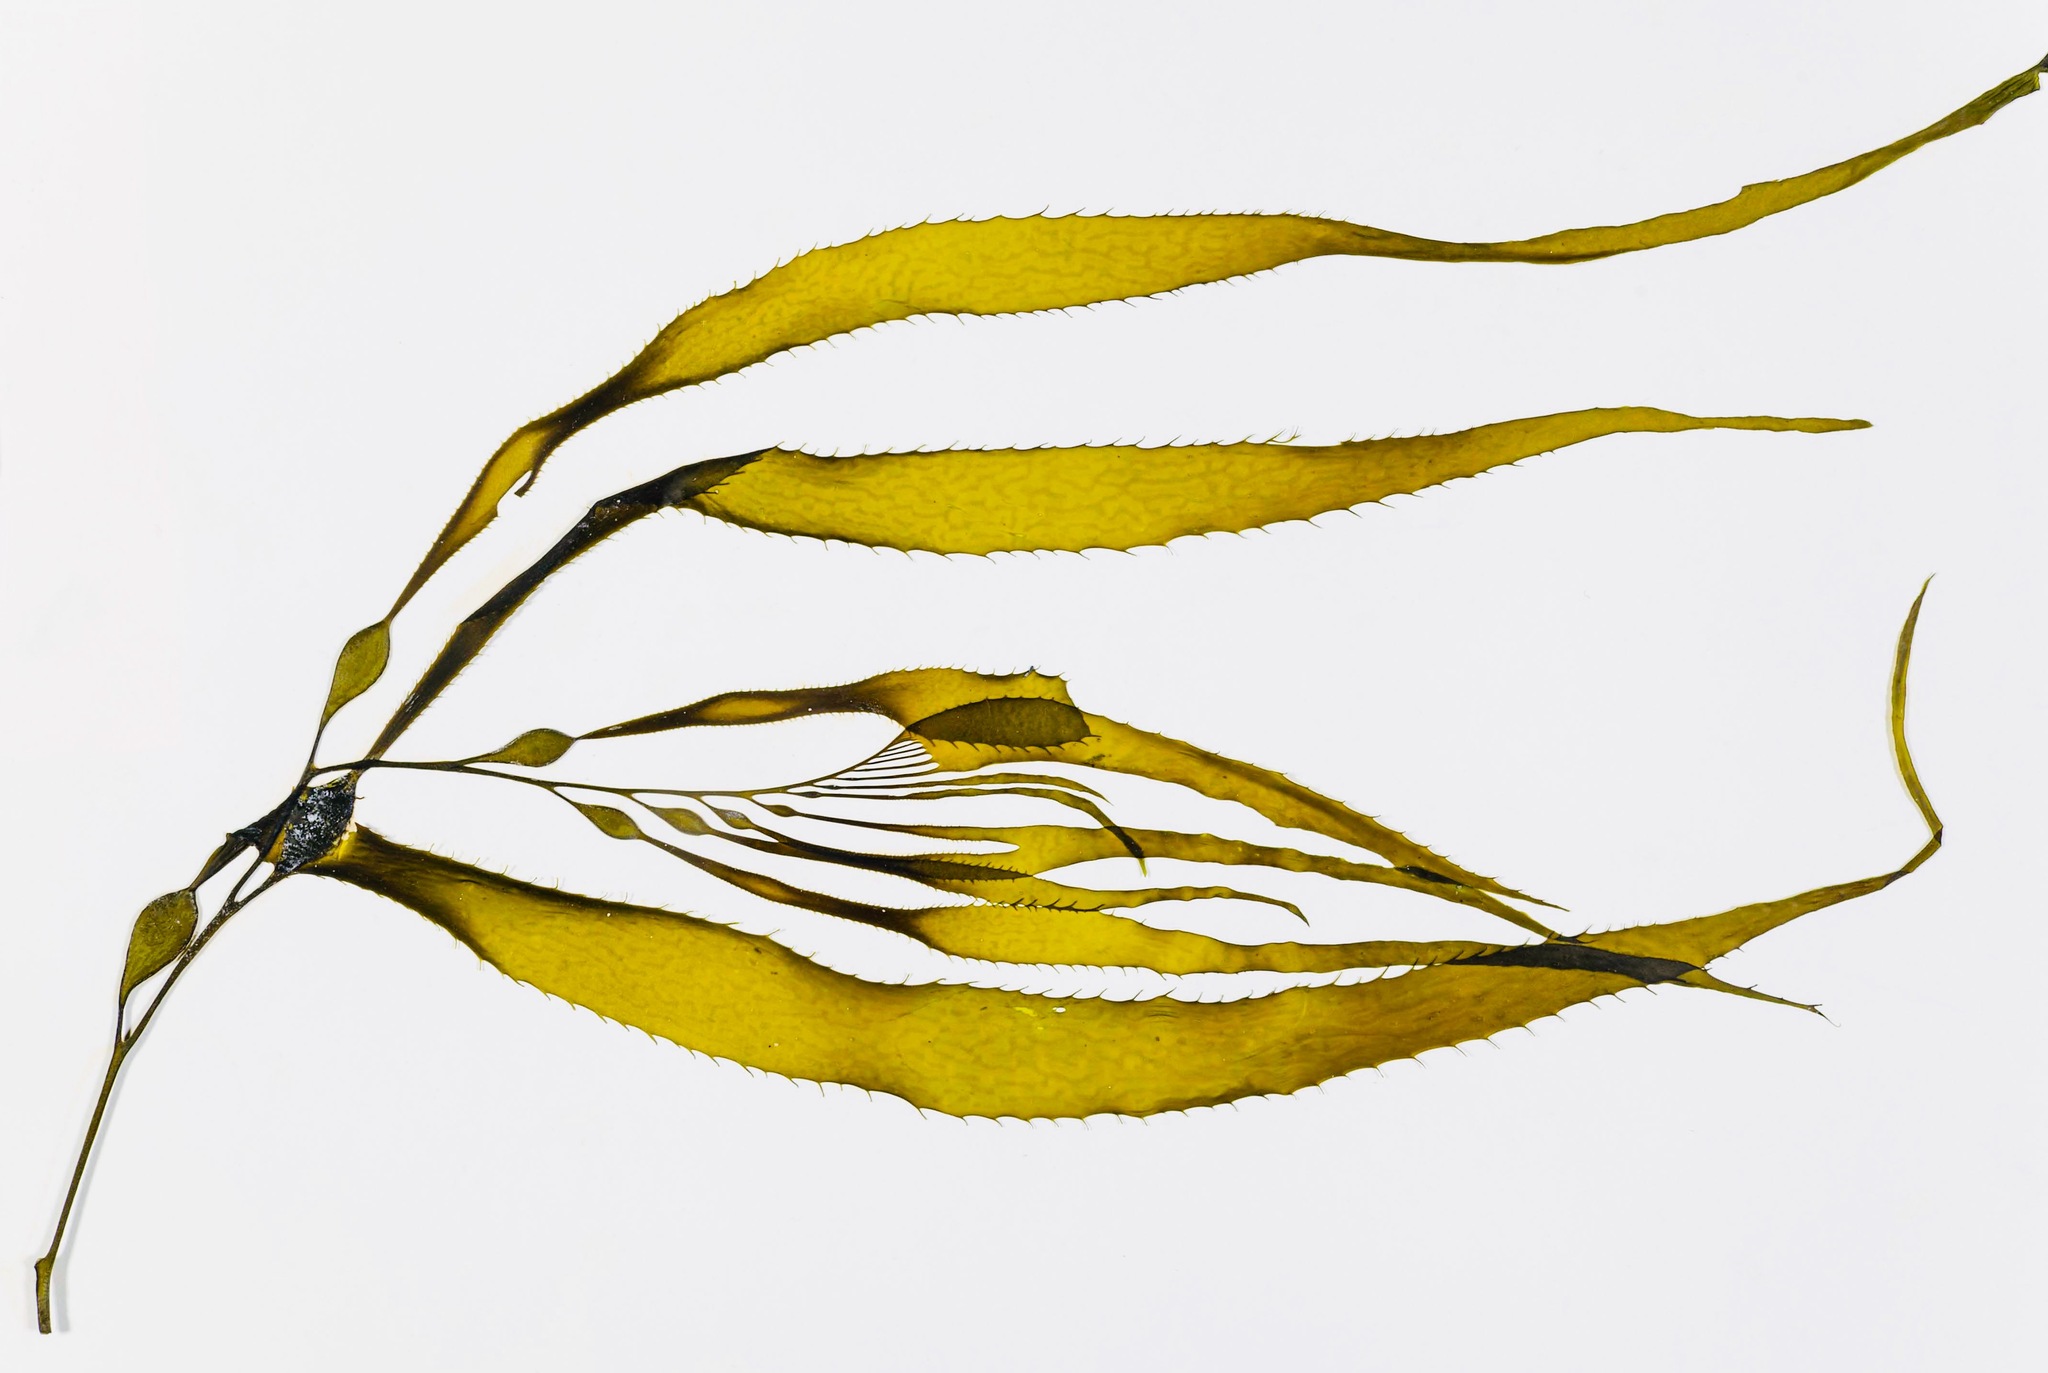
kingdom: Chromista
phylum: Ochrophyta
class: Phaeophyceae
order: Laminariales
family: Laminariaceae
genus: Macrocystis
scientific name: Macrocystis pyrifera
